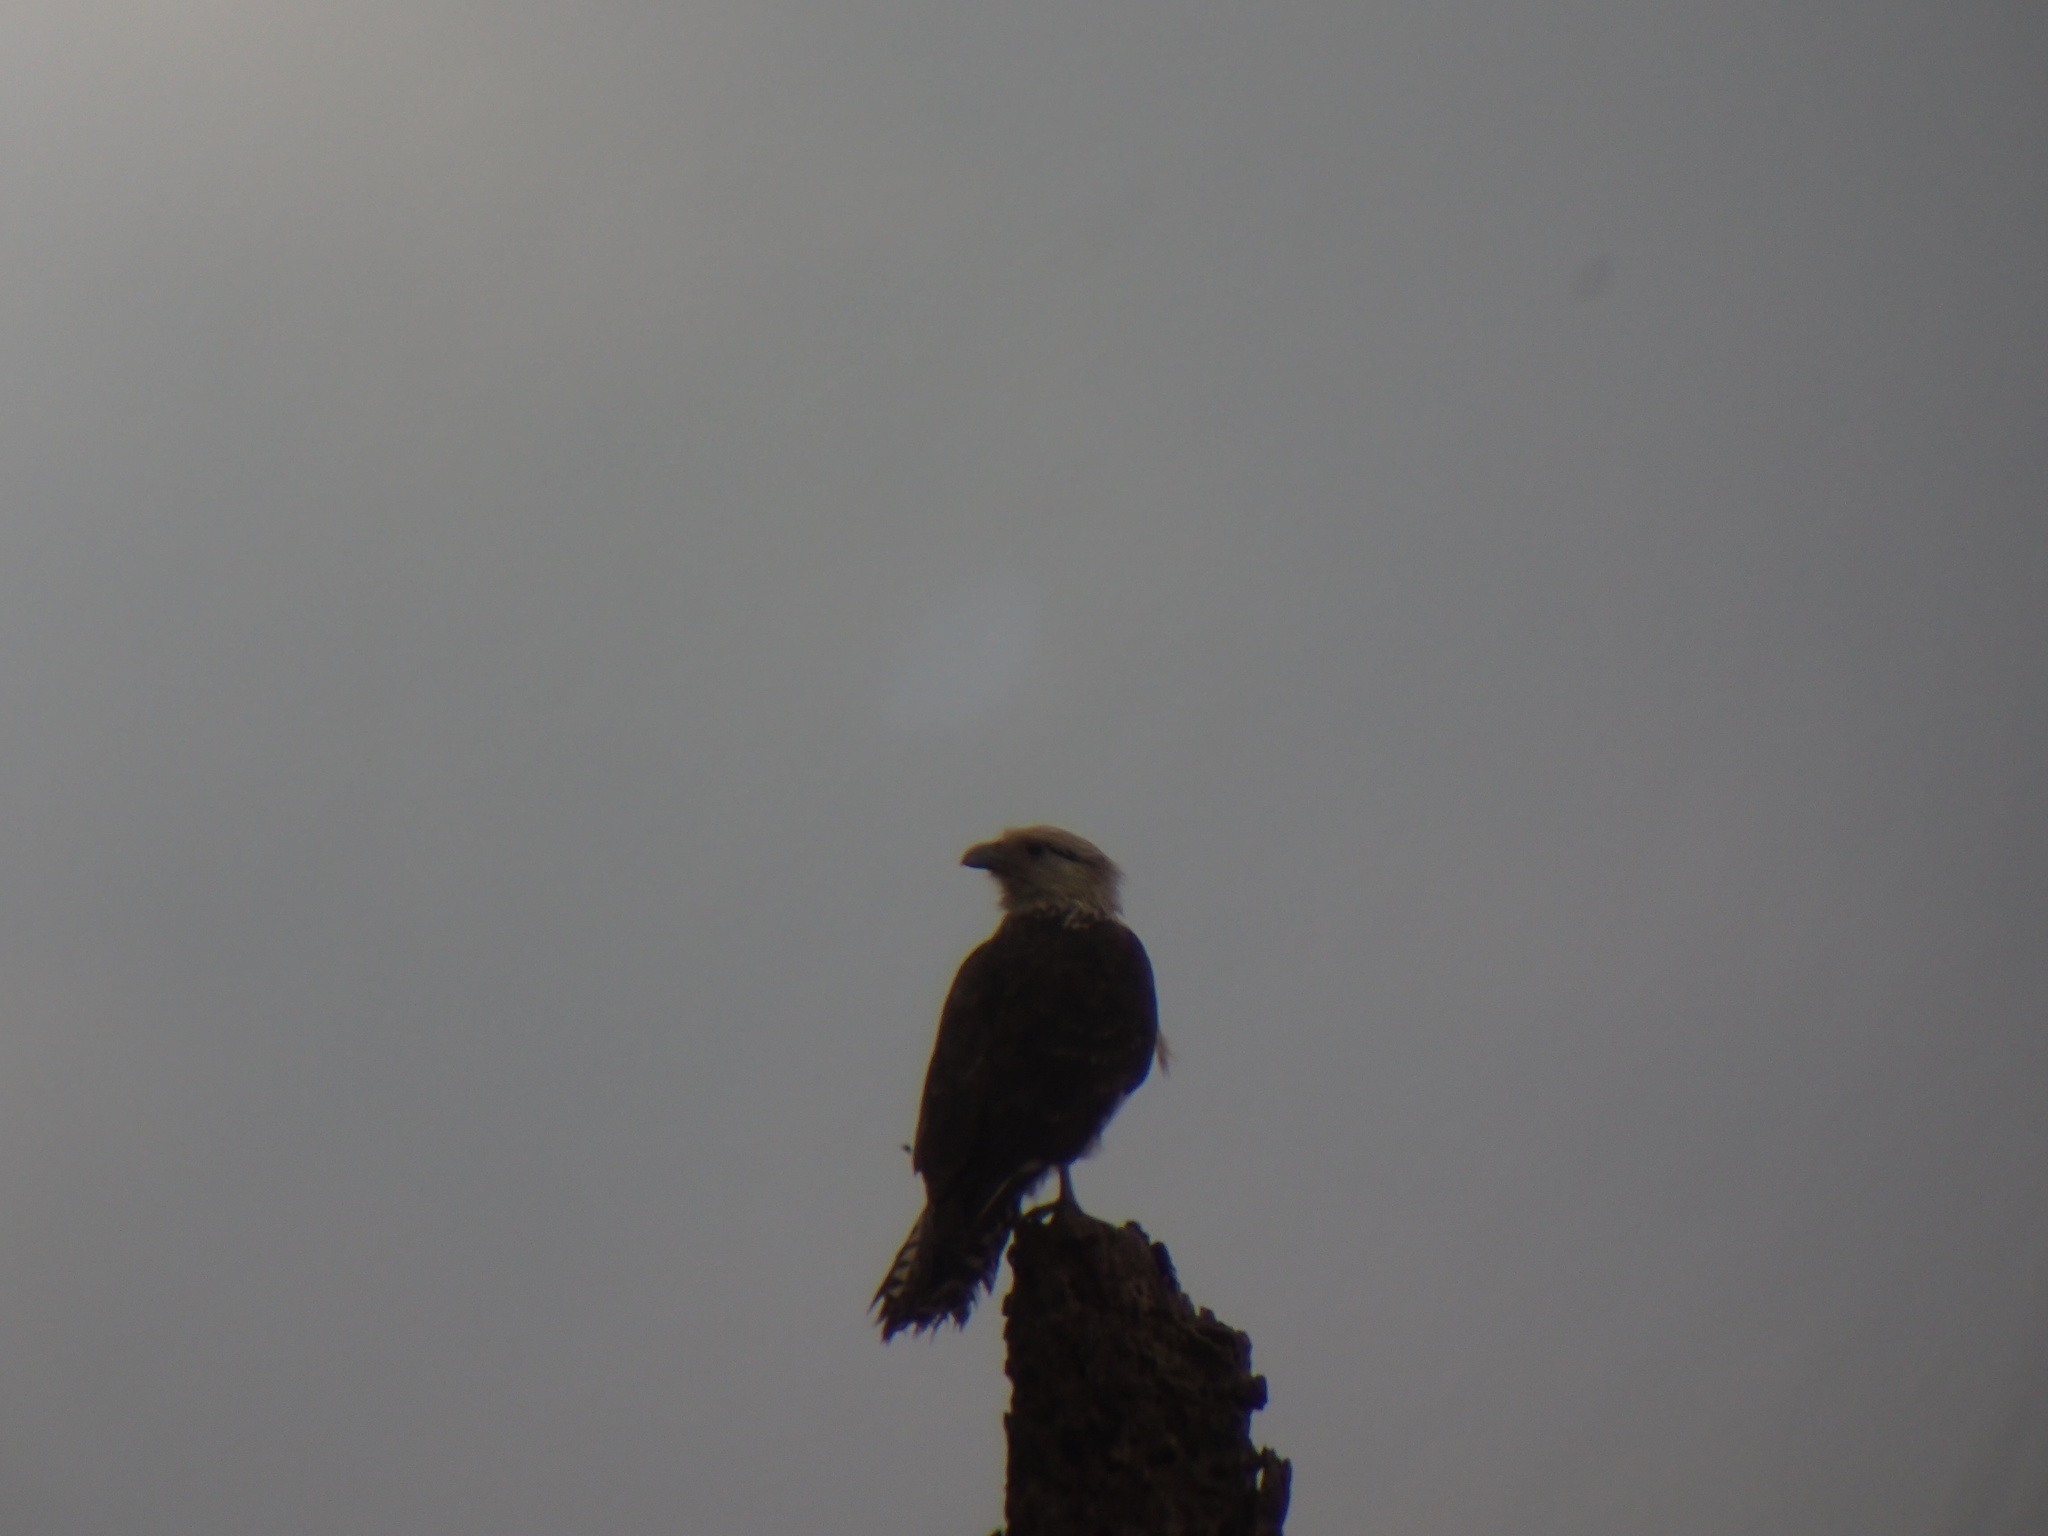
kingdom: Animalia
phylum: Chordata
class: Aves
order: Falconiformes
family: Falconidae
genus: Daptrius
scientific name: Daptrius
